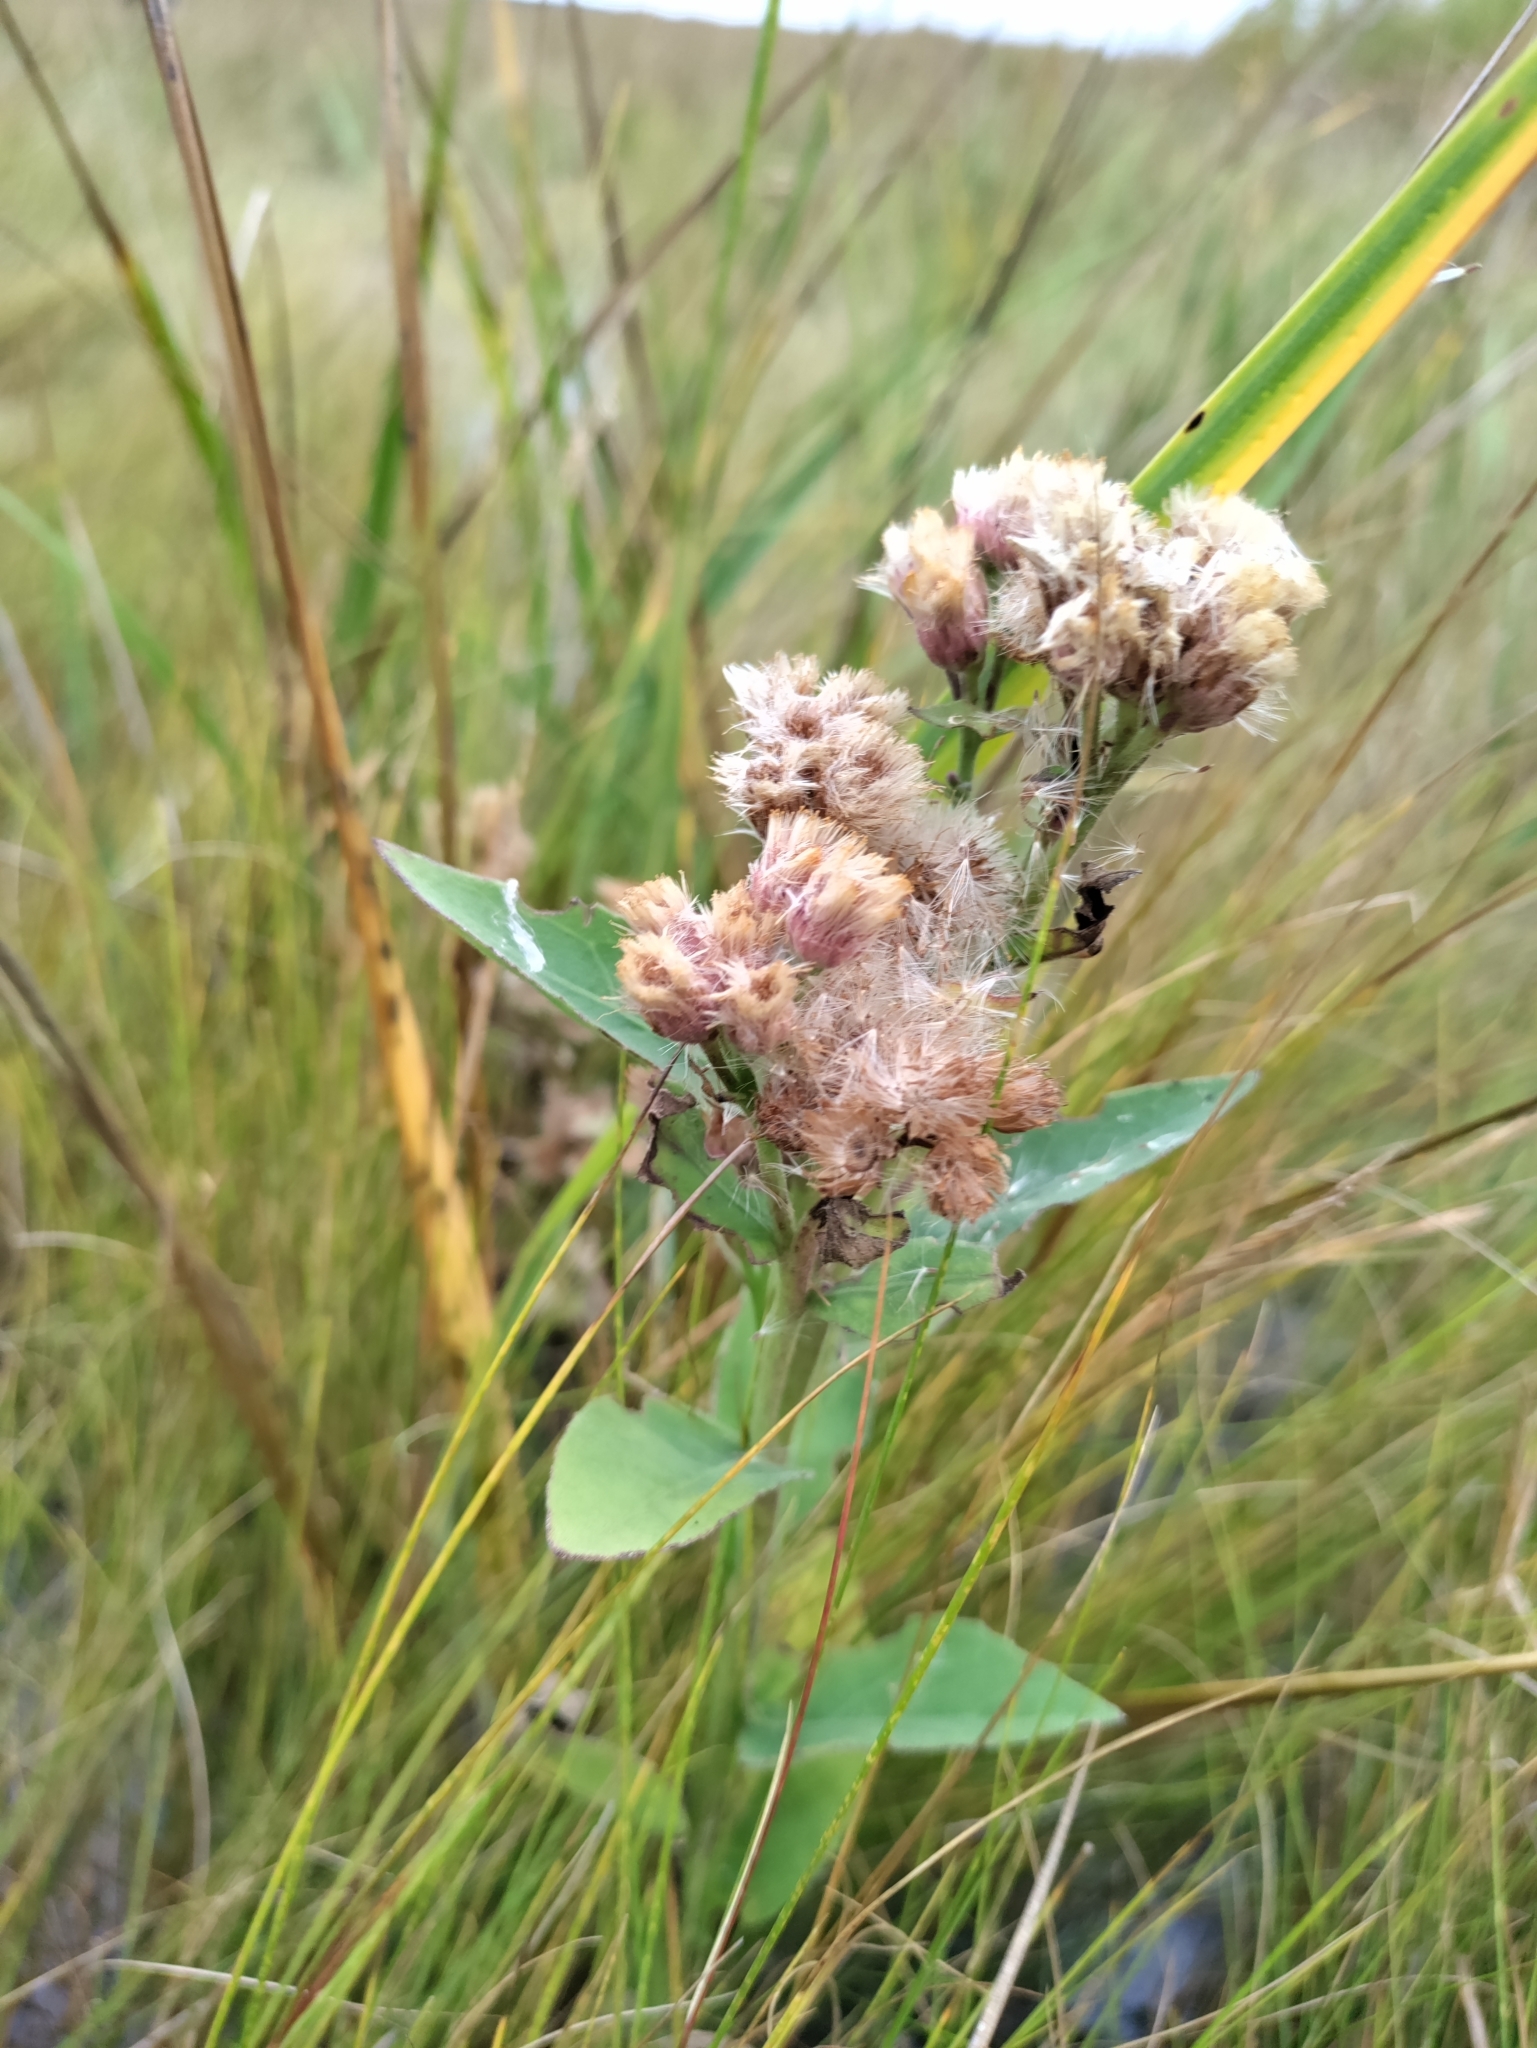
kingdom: Plantae
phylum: Tracheophyta
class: Magnoliopsida
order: Asterales
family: Asteraceae
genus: Pluchea
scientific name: Pluchea odorata
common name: Saltmarsh fleabane
